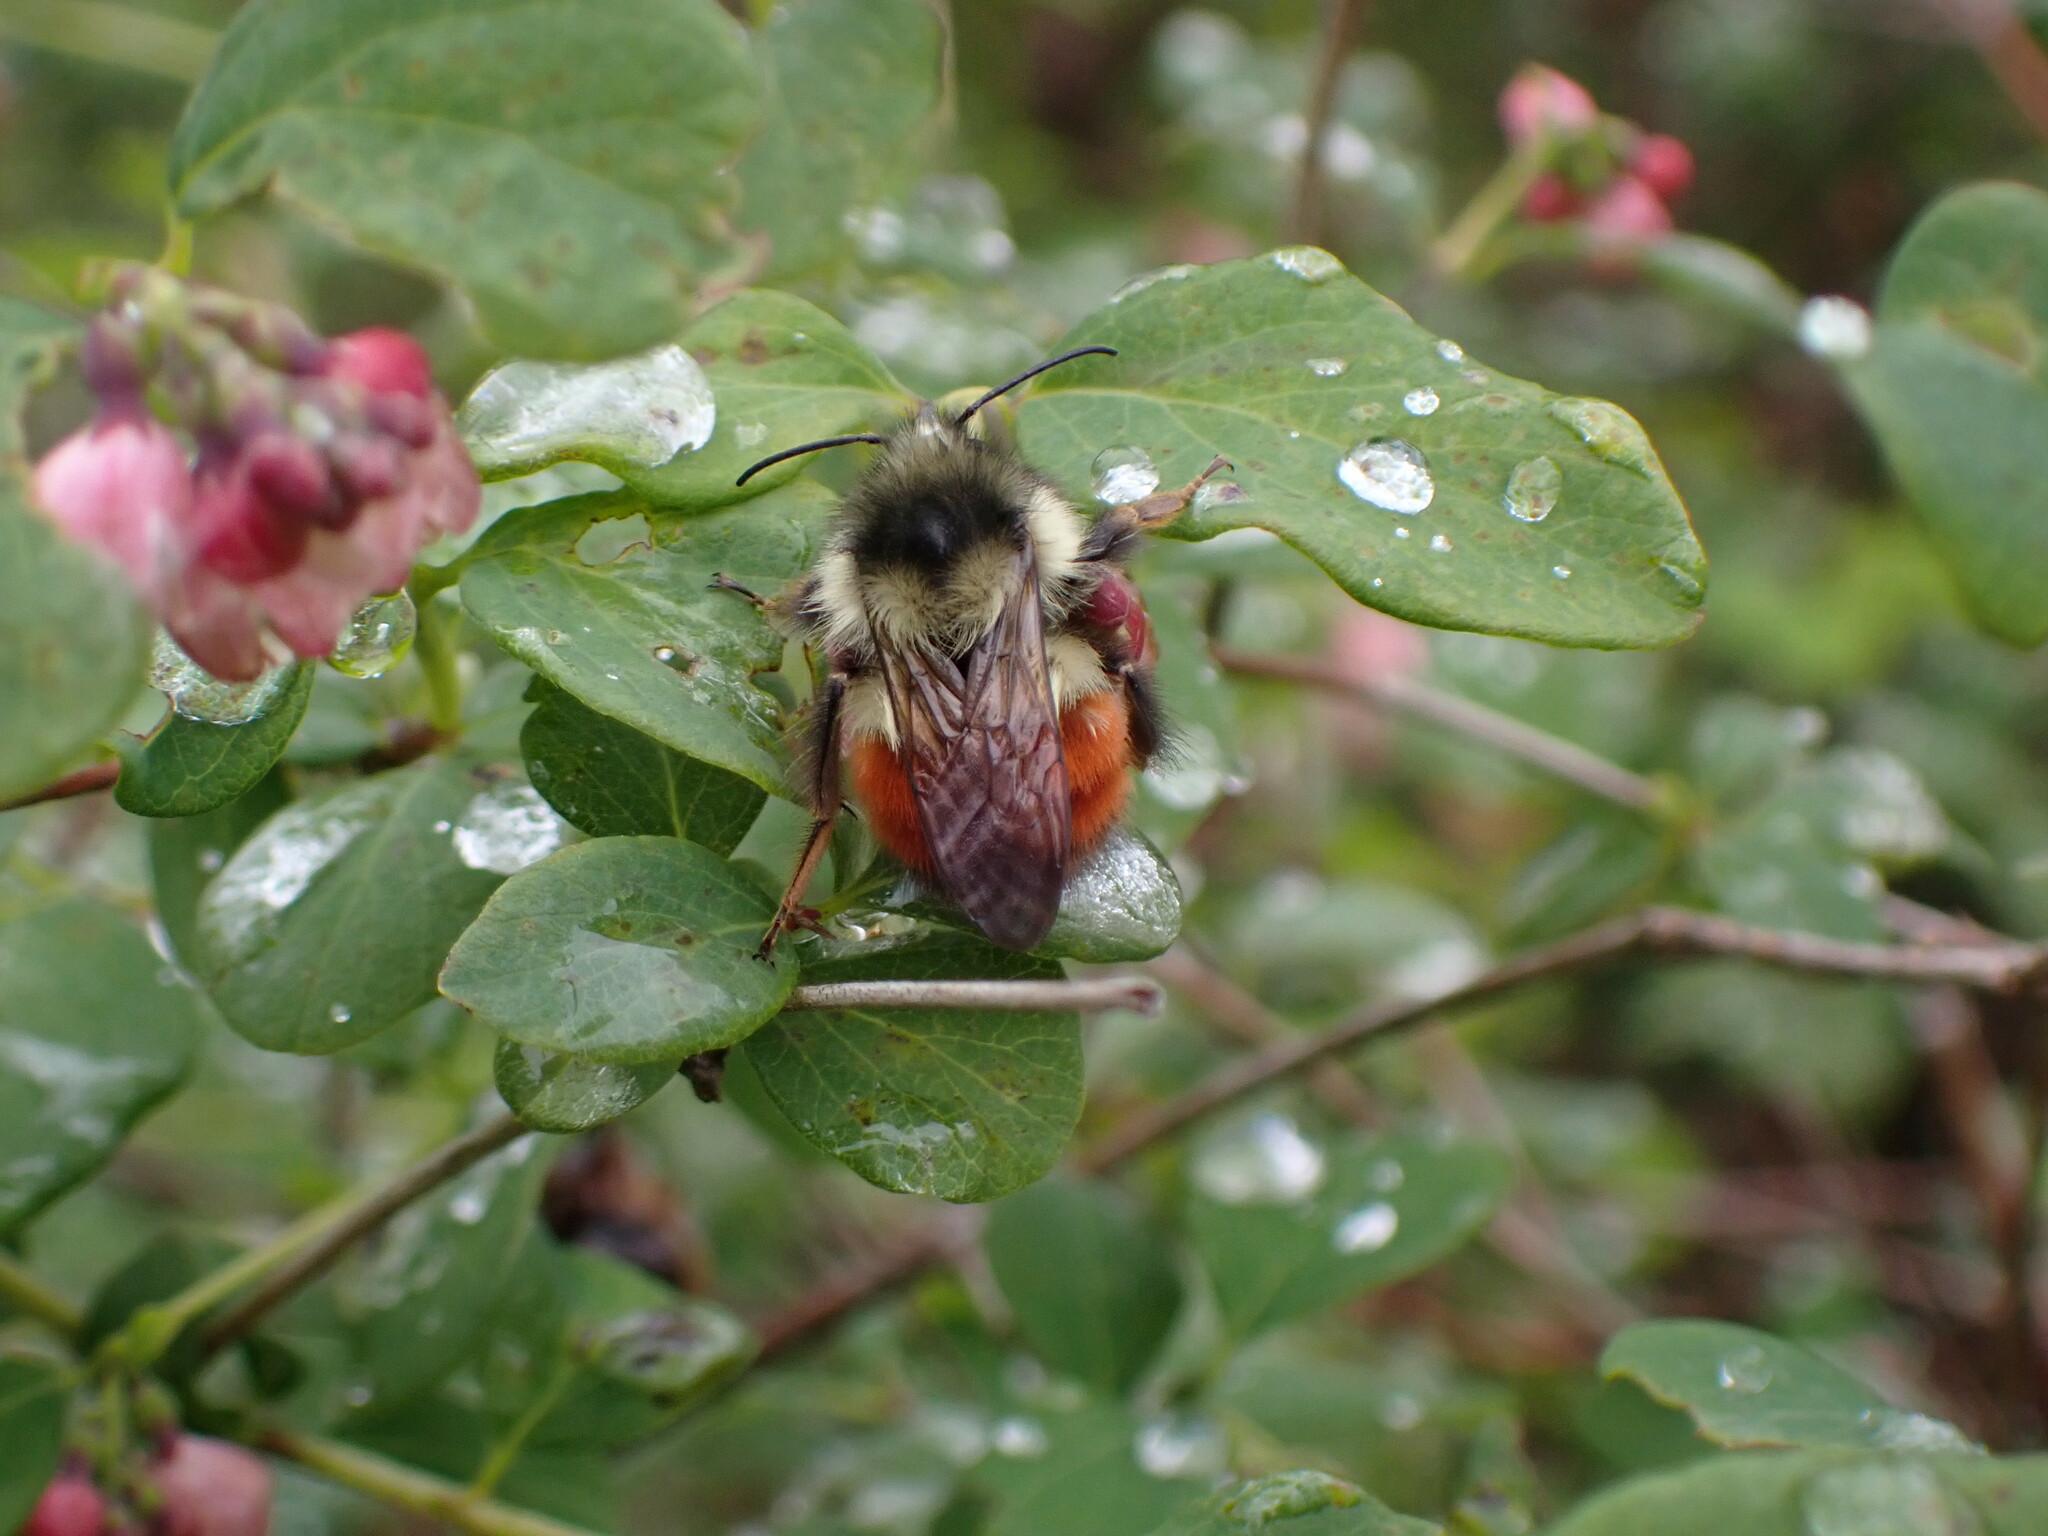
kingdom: Animalia
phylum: Arthropoda
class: Insecta
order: Hymenoptera
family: Apidae
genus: Bombus
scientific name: Bombus melanopygus
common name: Black tail bumble bee
